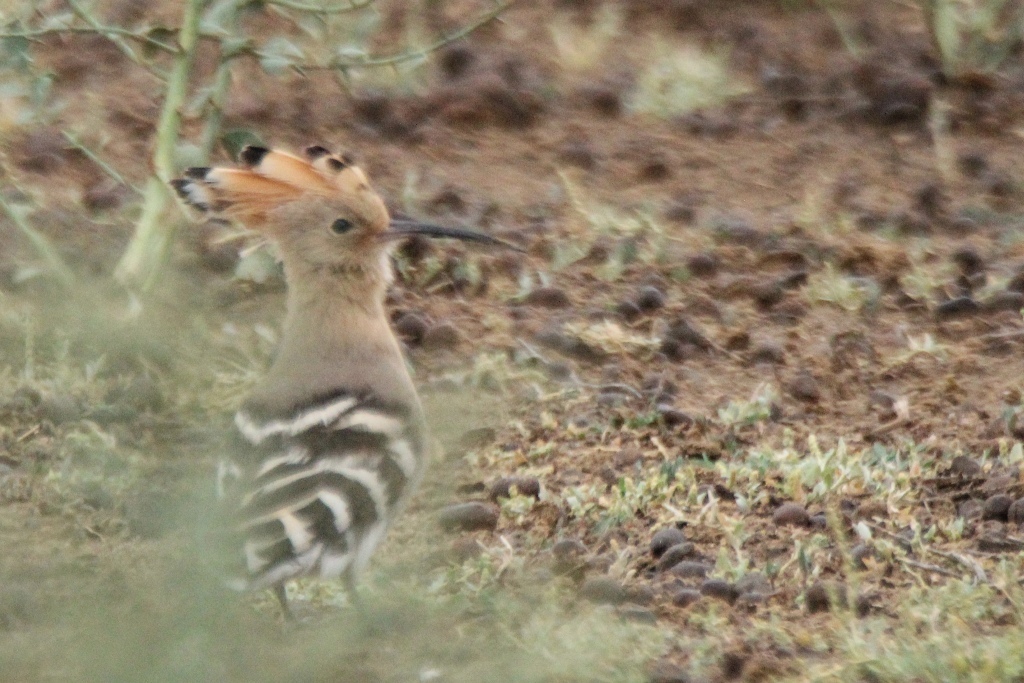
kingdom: Animalia
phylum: Chordata
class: Aves
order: Bucerotiformes
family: Upupidae
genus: Upupa
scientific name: Upupa epops
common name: Eurasian hoopoe
